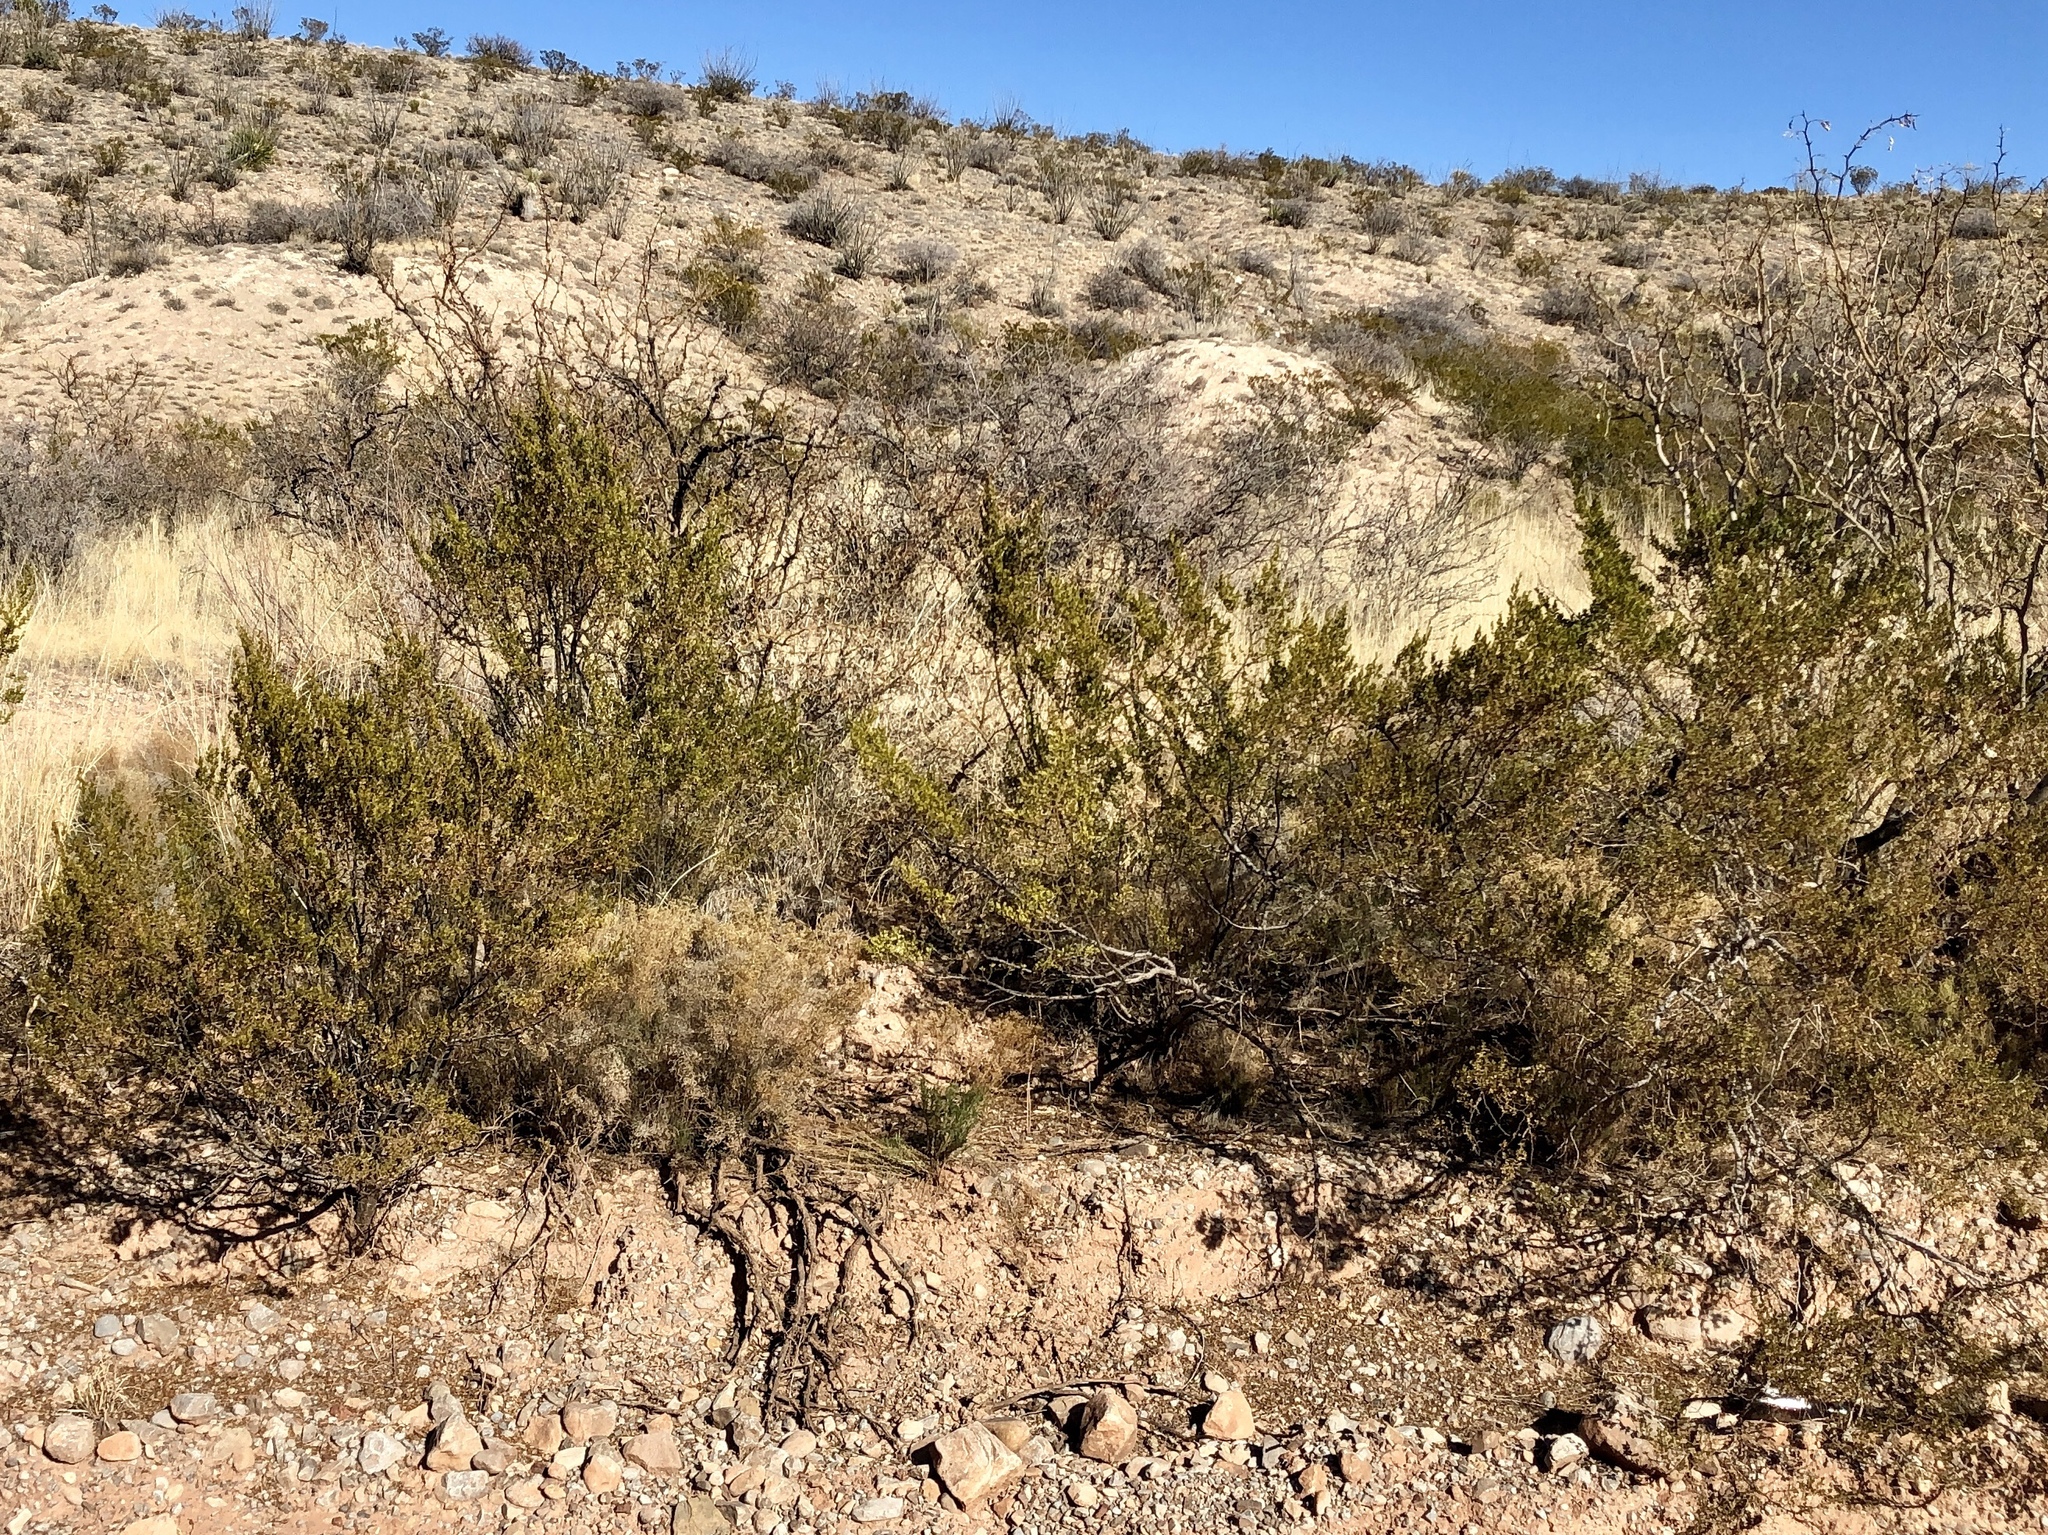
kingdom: Plantae
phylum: Tracheophyta
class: Magnoliopsida
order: Zygophyllales
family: Zygophyllaceae
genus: Larrea
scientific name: Larrea tridentata
